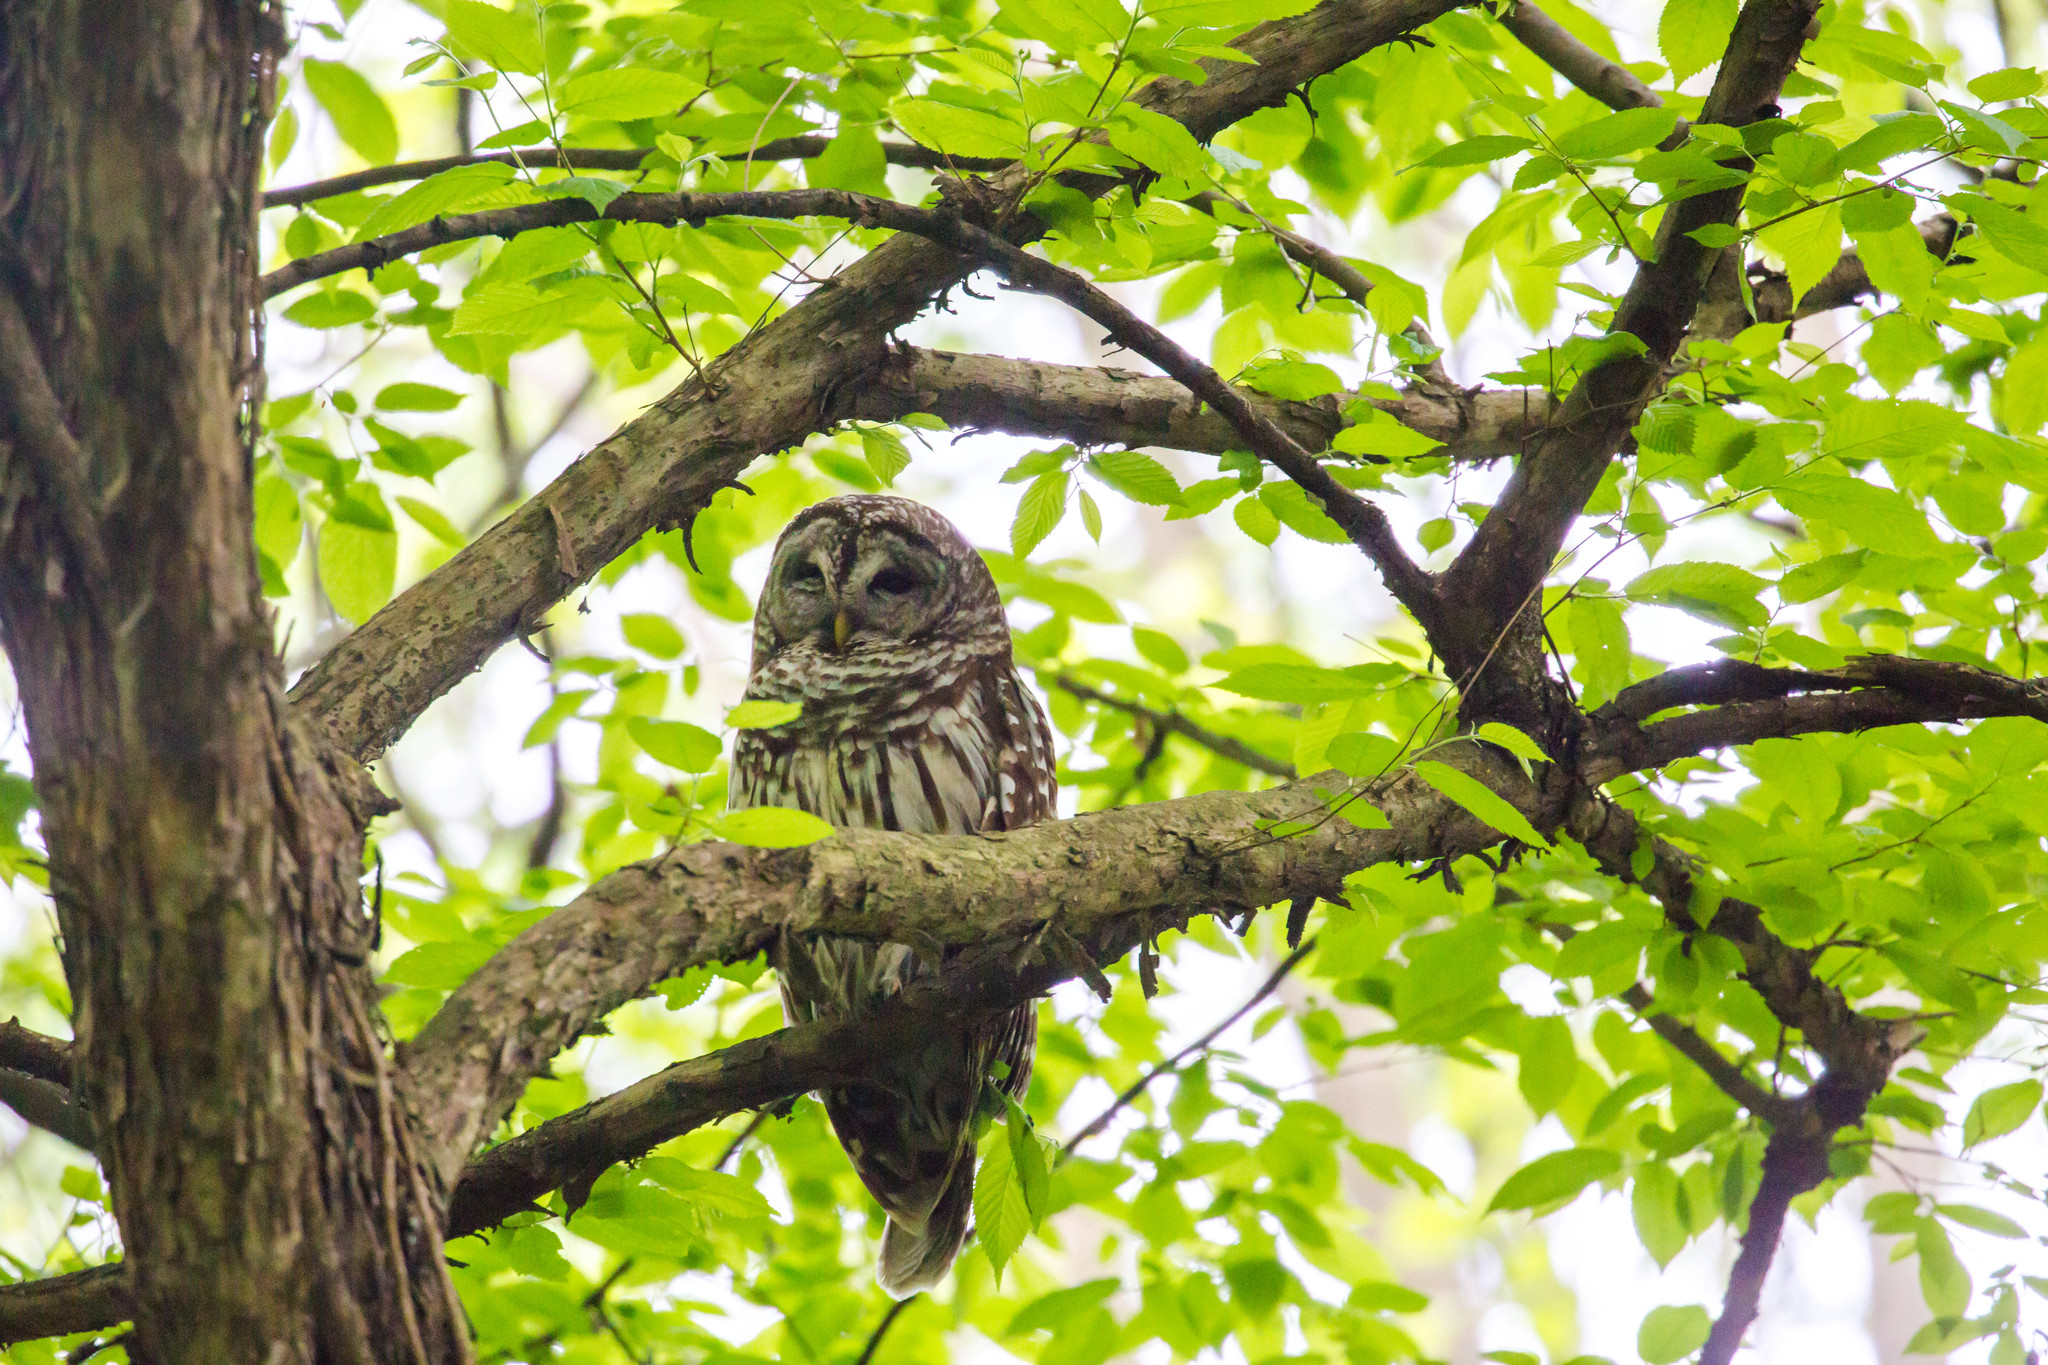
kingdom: Animalia
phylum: Chordata
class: Aves
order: Strigiformes
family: Strigidae
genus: Strix
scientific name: Strix varia
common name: Barred owl
